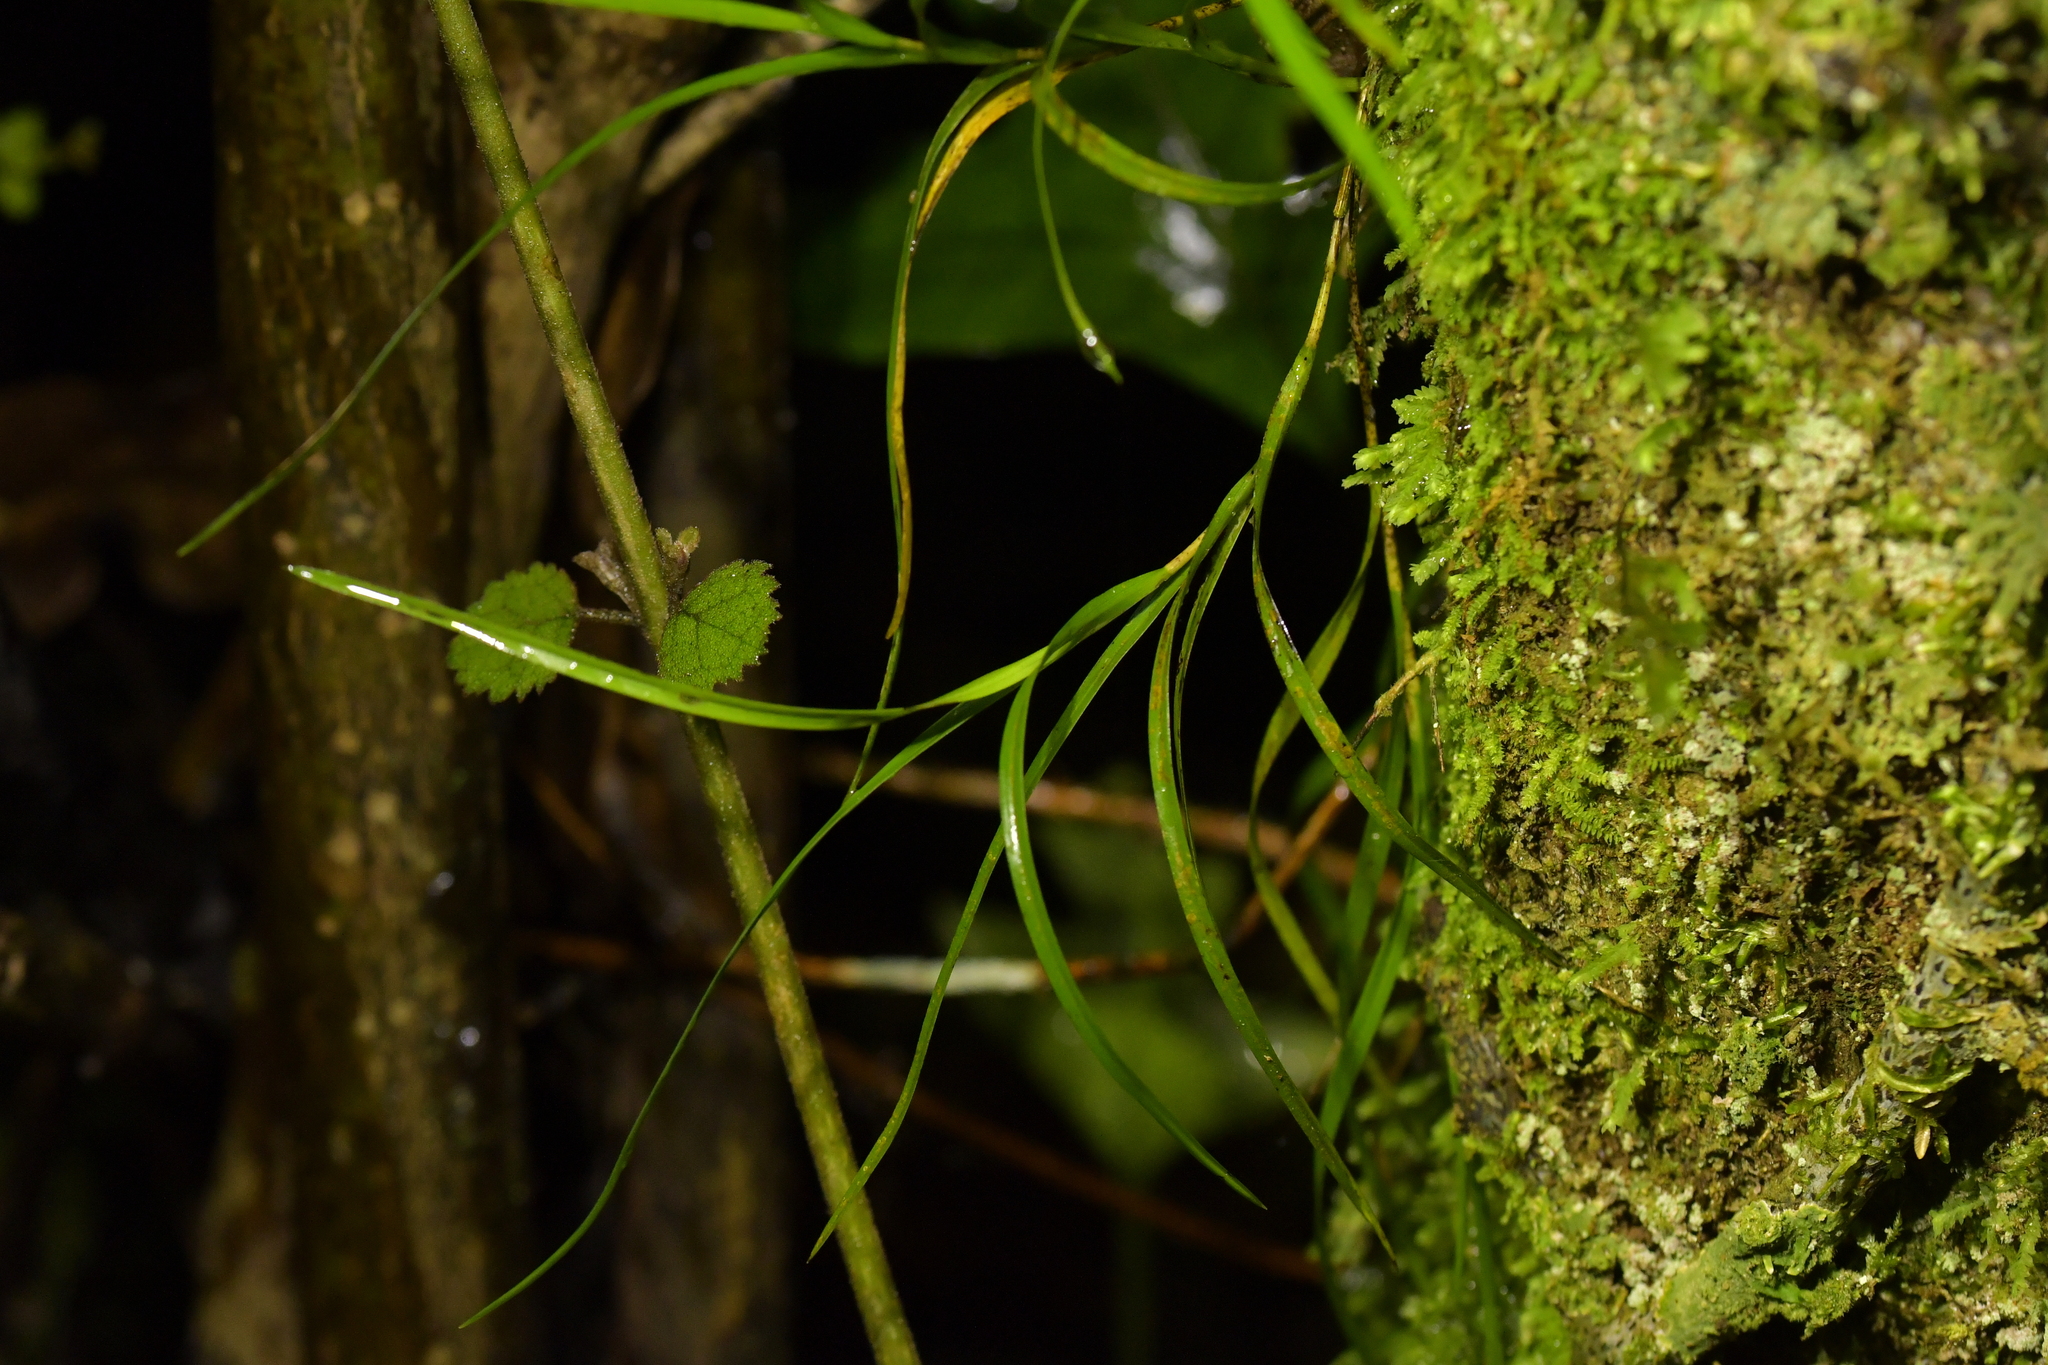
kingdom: Plantae
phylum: Tracheophyta
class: Liliopsida
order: Asparagales
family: Orchidaceae
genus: Earina
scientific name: Earina mucronata
